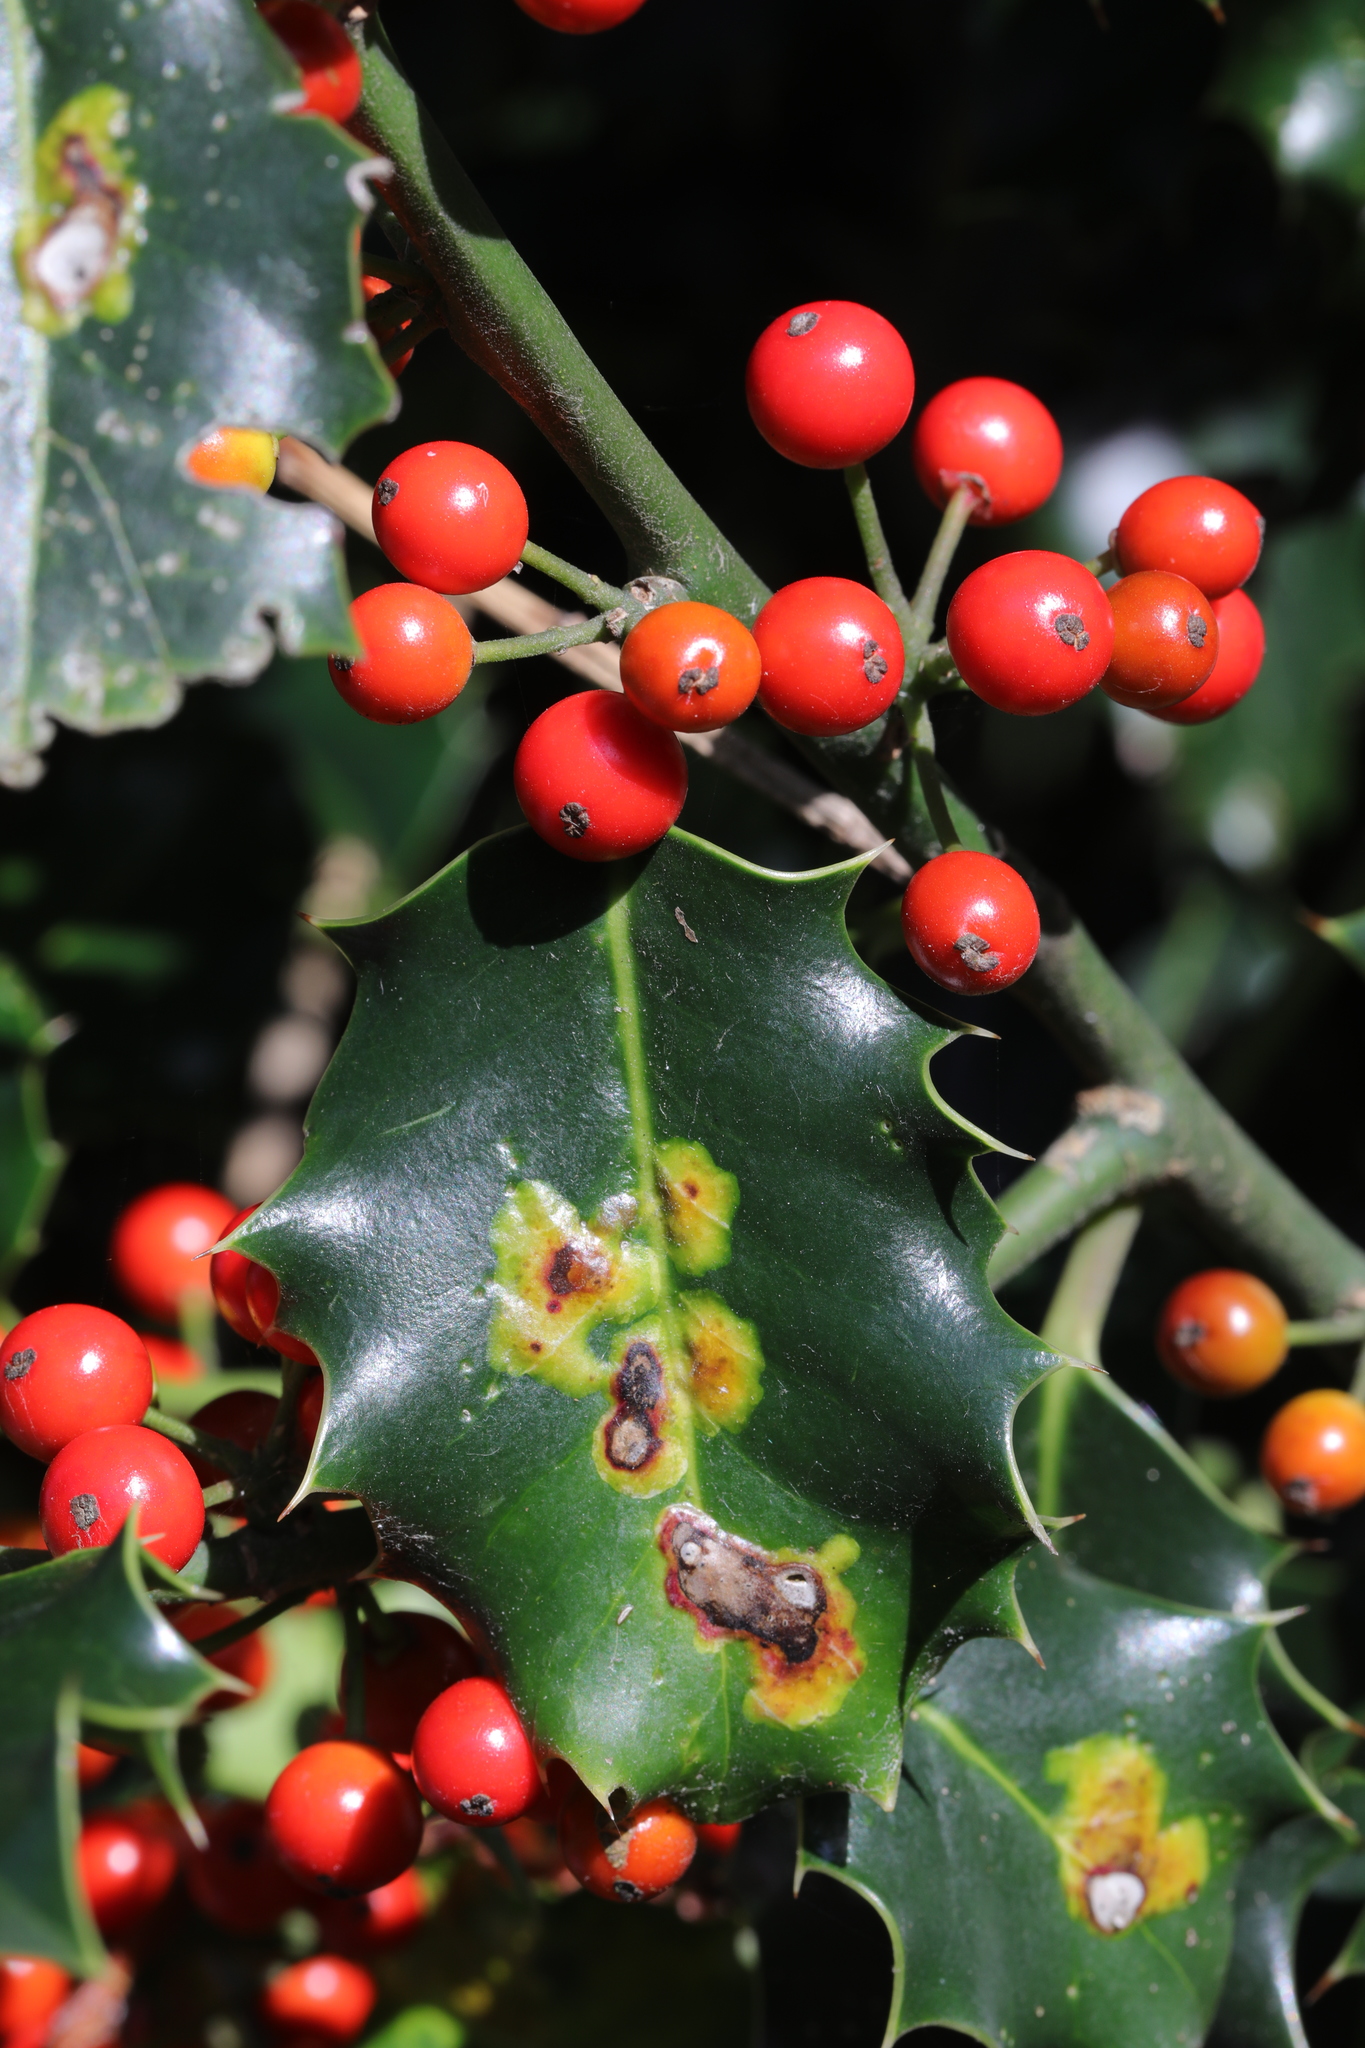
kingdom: Plantae
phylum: Tracheophyta
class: Magnoliopsida
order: Aquifoliales
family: Aquifoliaceae
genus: Ilex
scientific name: Ilex aquifolium
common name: English holly
